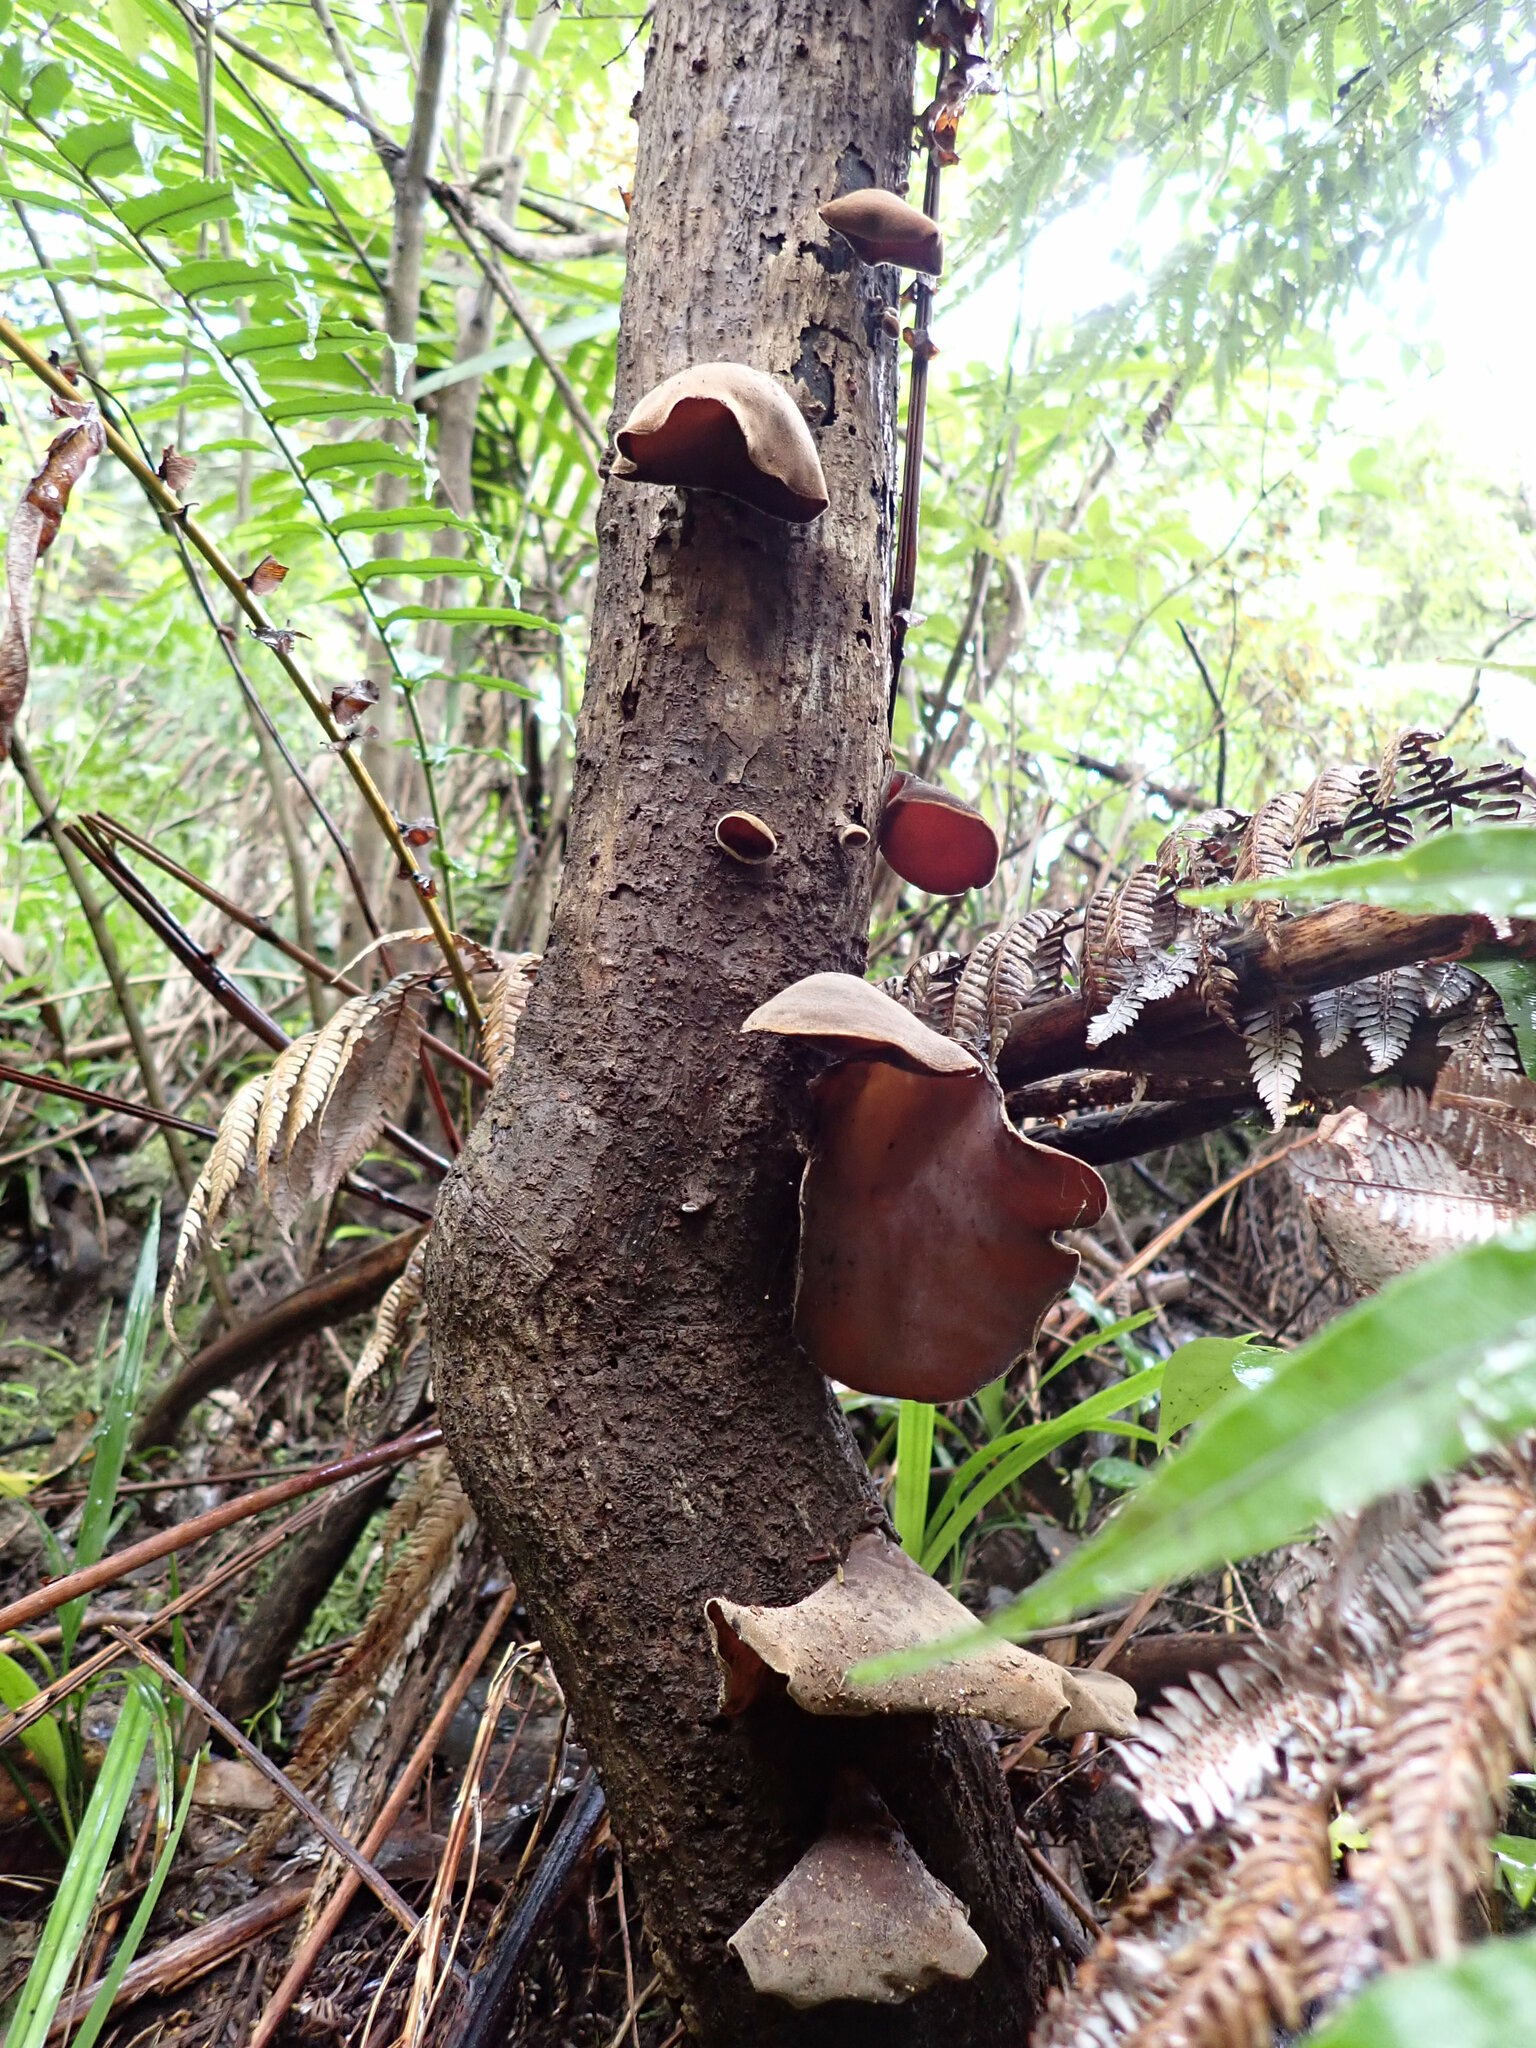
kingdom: Fungi
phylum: Basidiomycota
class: Agaricomycetes
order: Auriculariales
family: Auriculariaceae
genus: Auricularia
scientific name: Auricularia cornea
